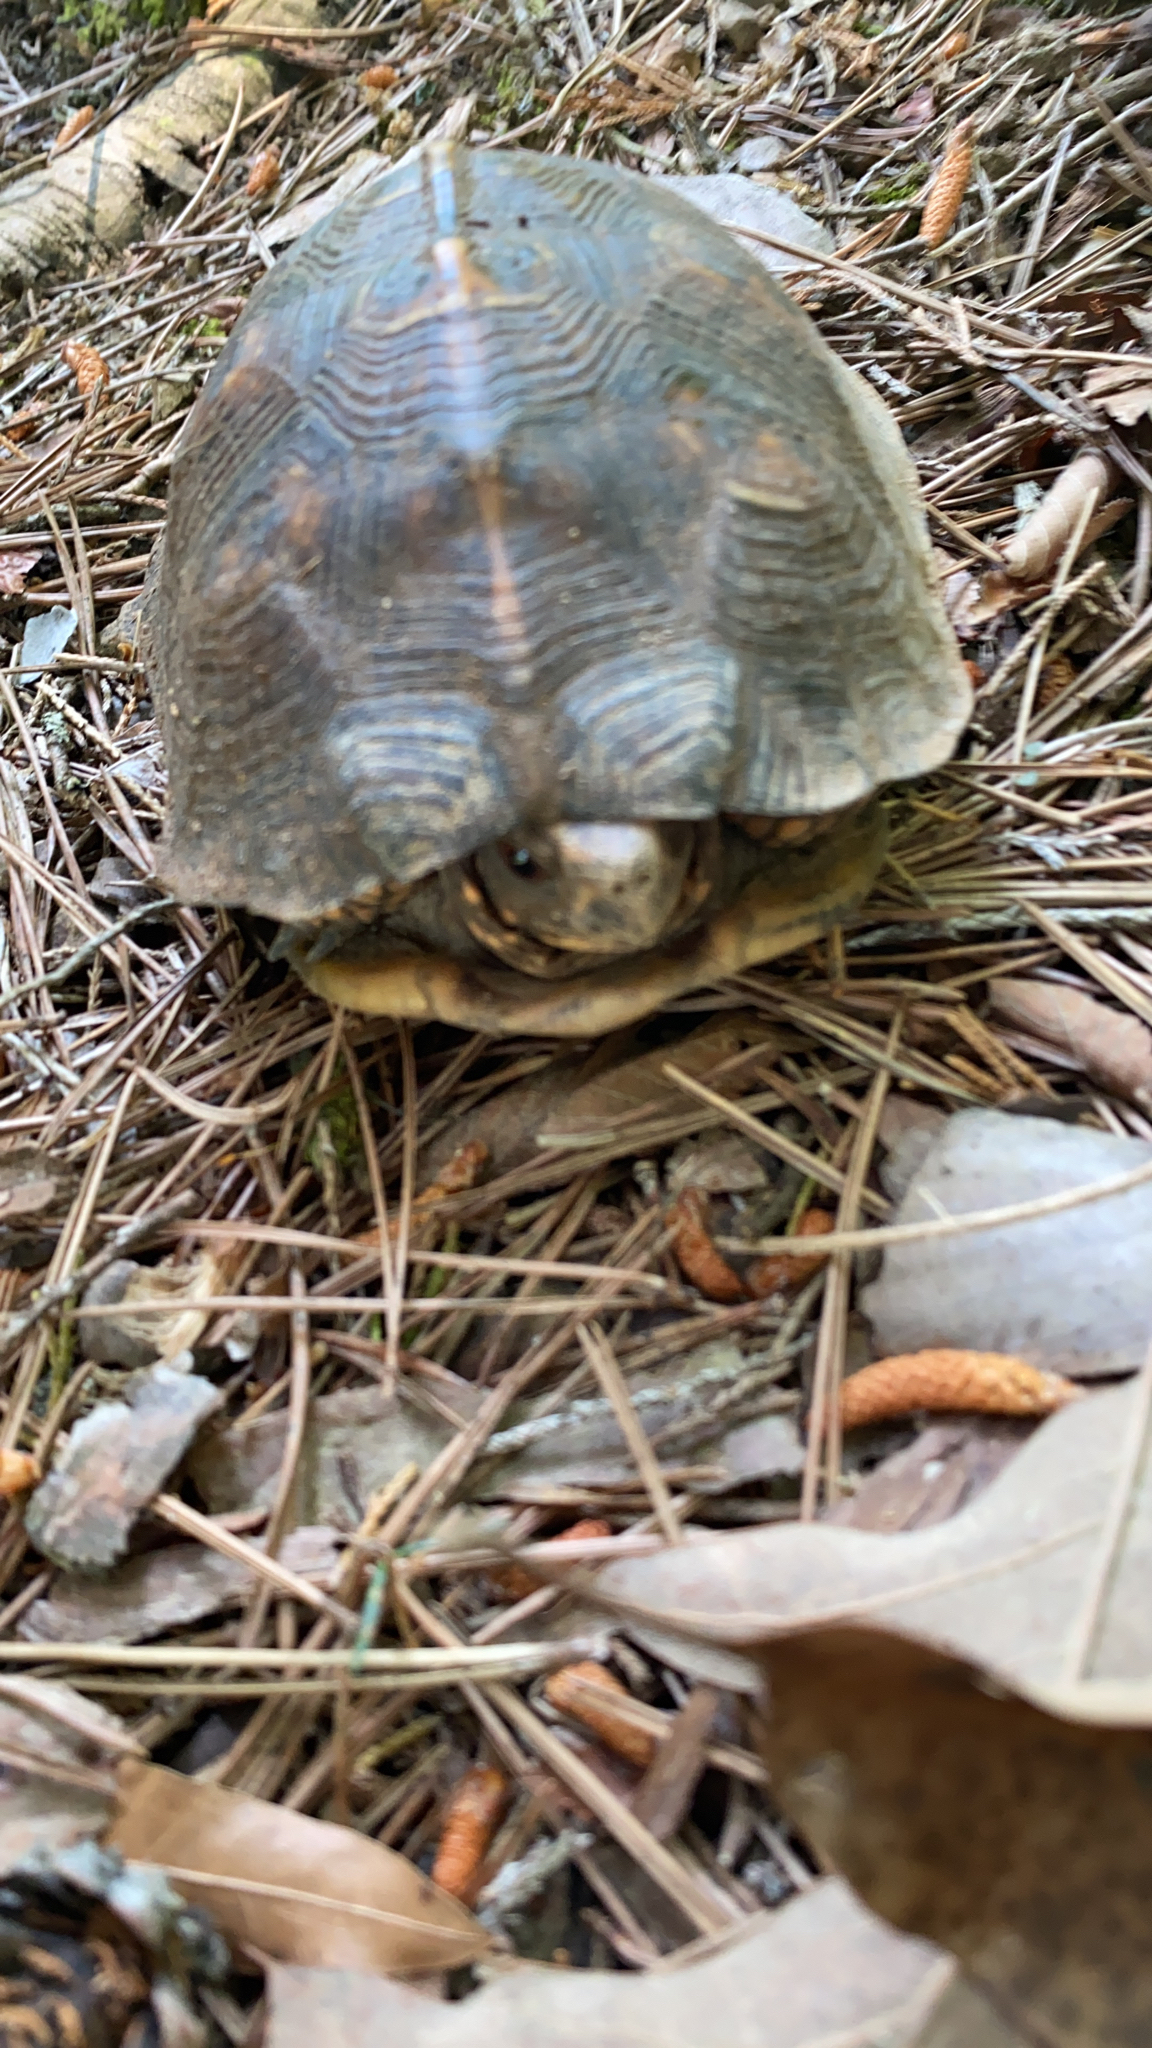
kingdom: Animalia
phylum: Chordata
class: Testudines
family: Emydidae
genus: Terrapene
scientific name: Terrapene carolina
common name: Common box turtle
